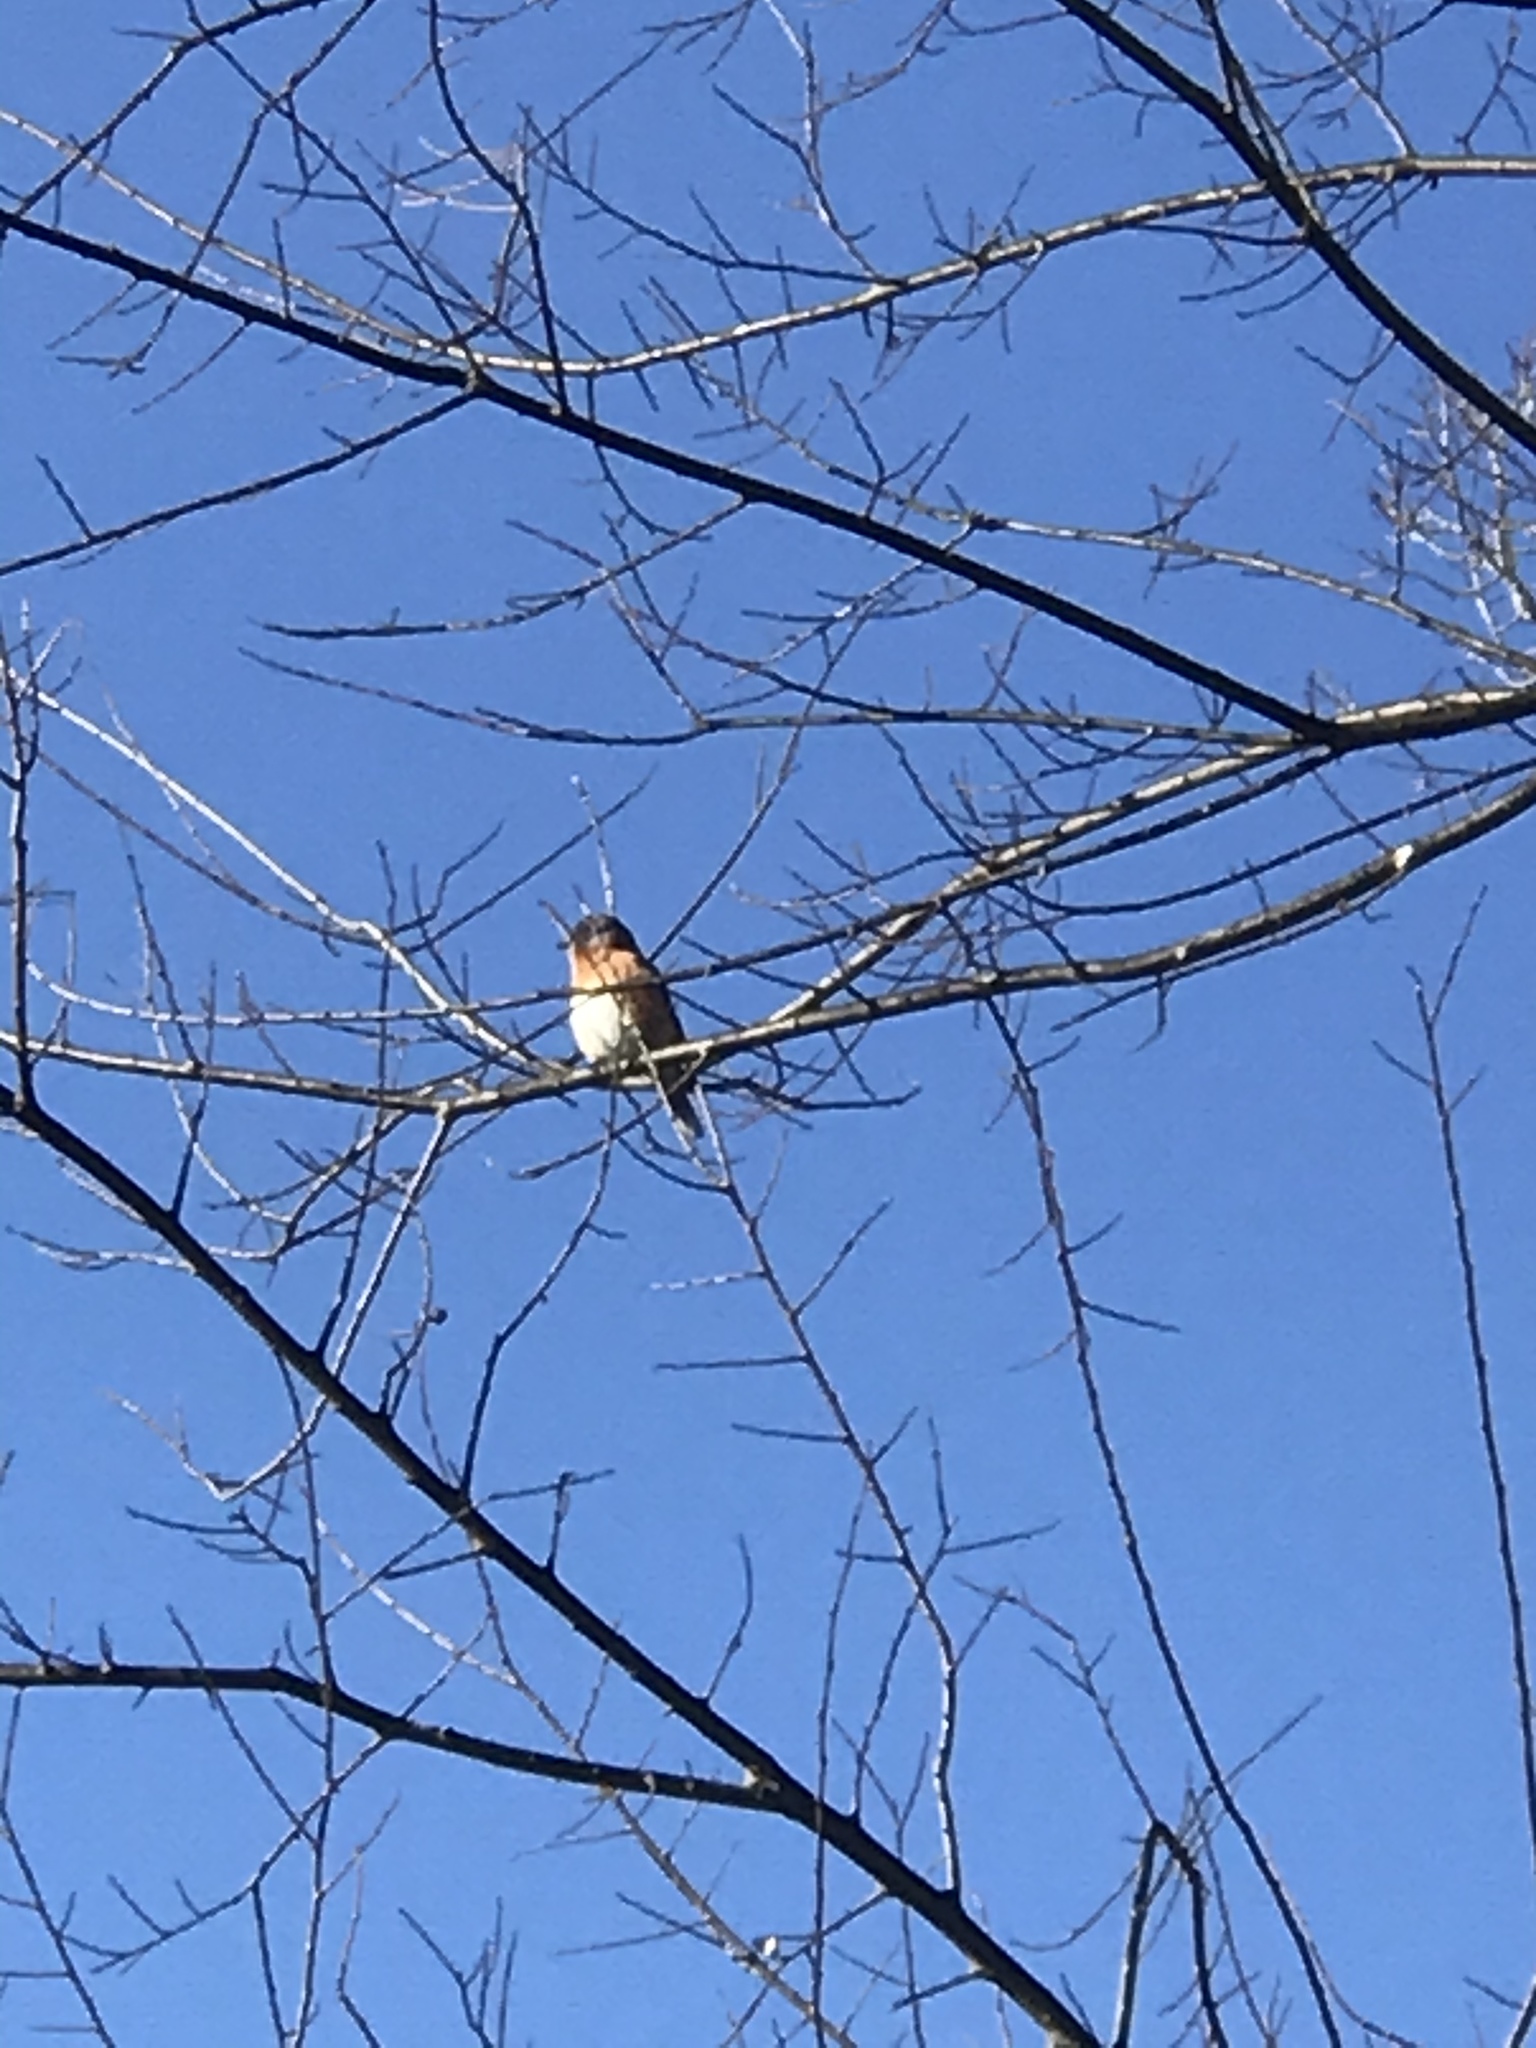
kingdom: Animalia
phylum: Chordata
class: Aves
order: Passeriformes
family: Turdidae
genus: Sialia
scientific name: Sialia sialis
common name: Eastern bluebird
